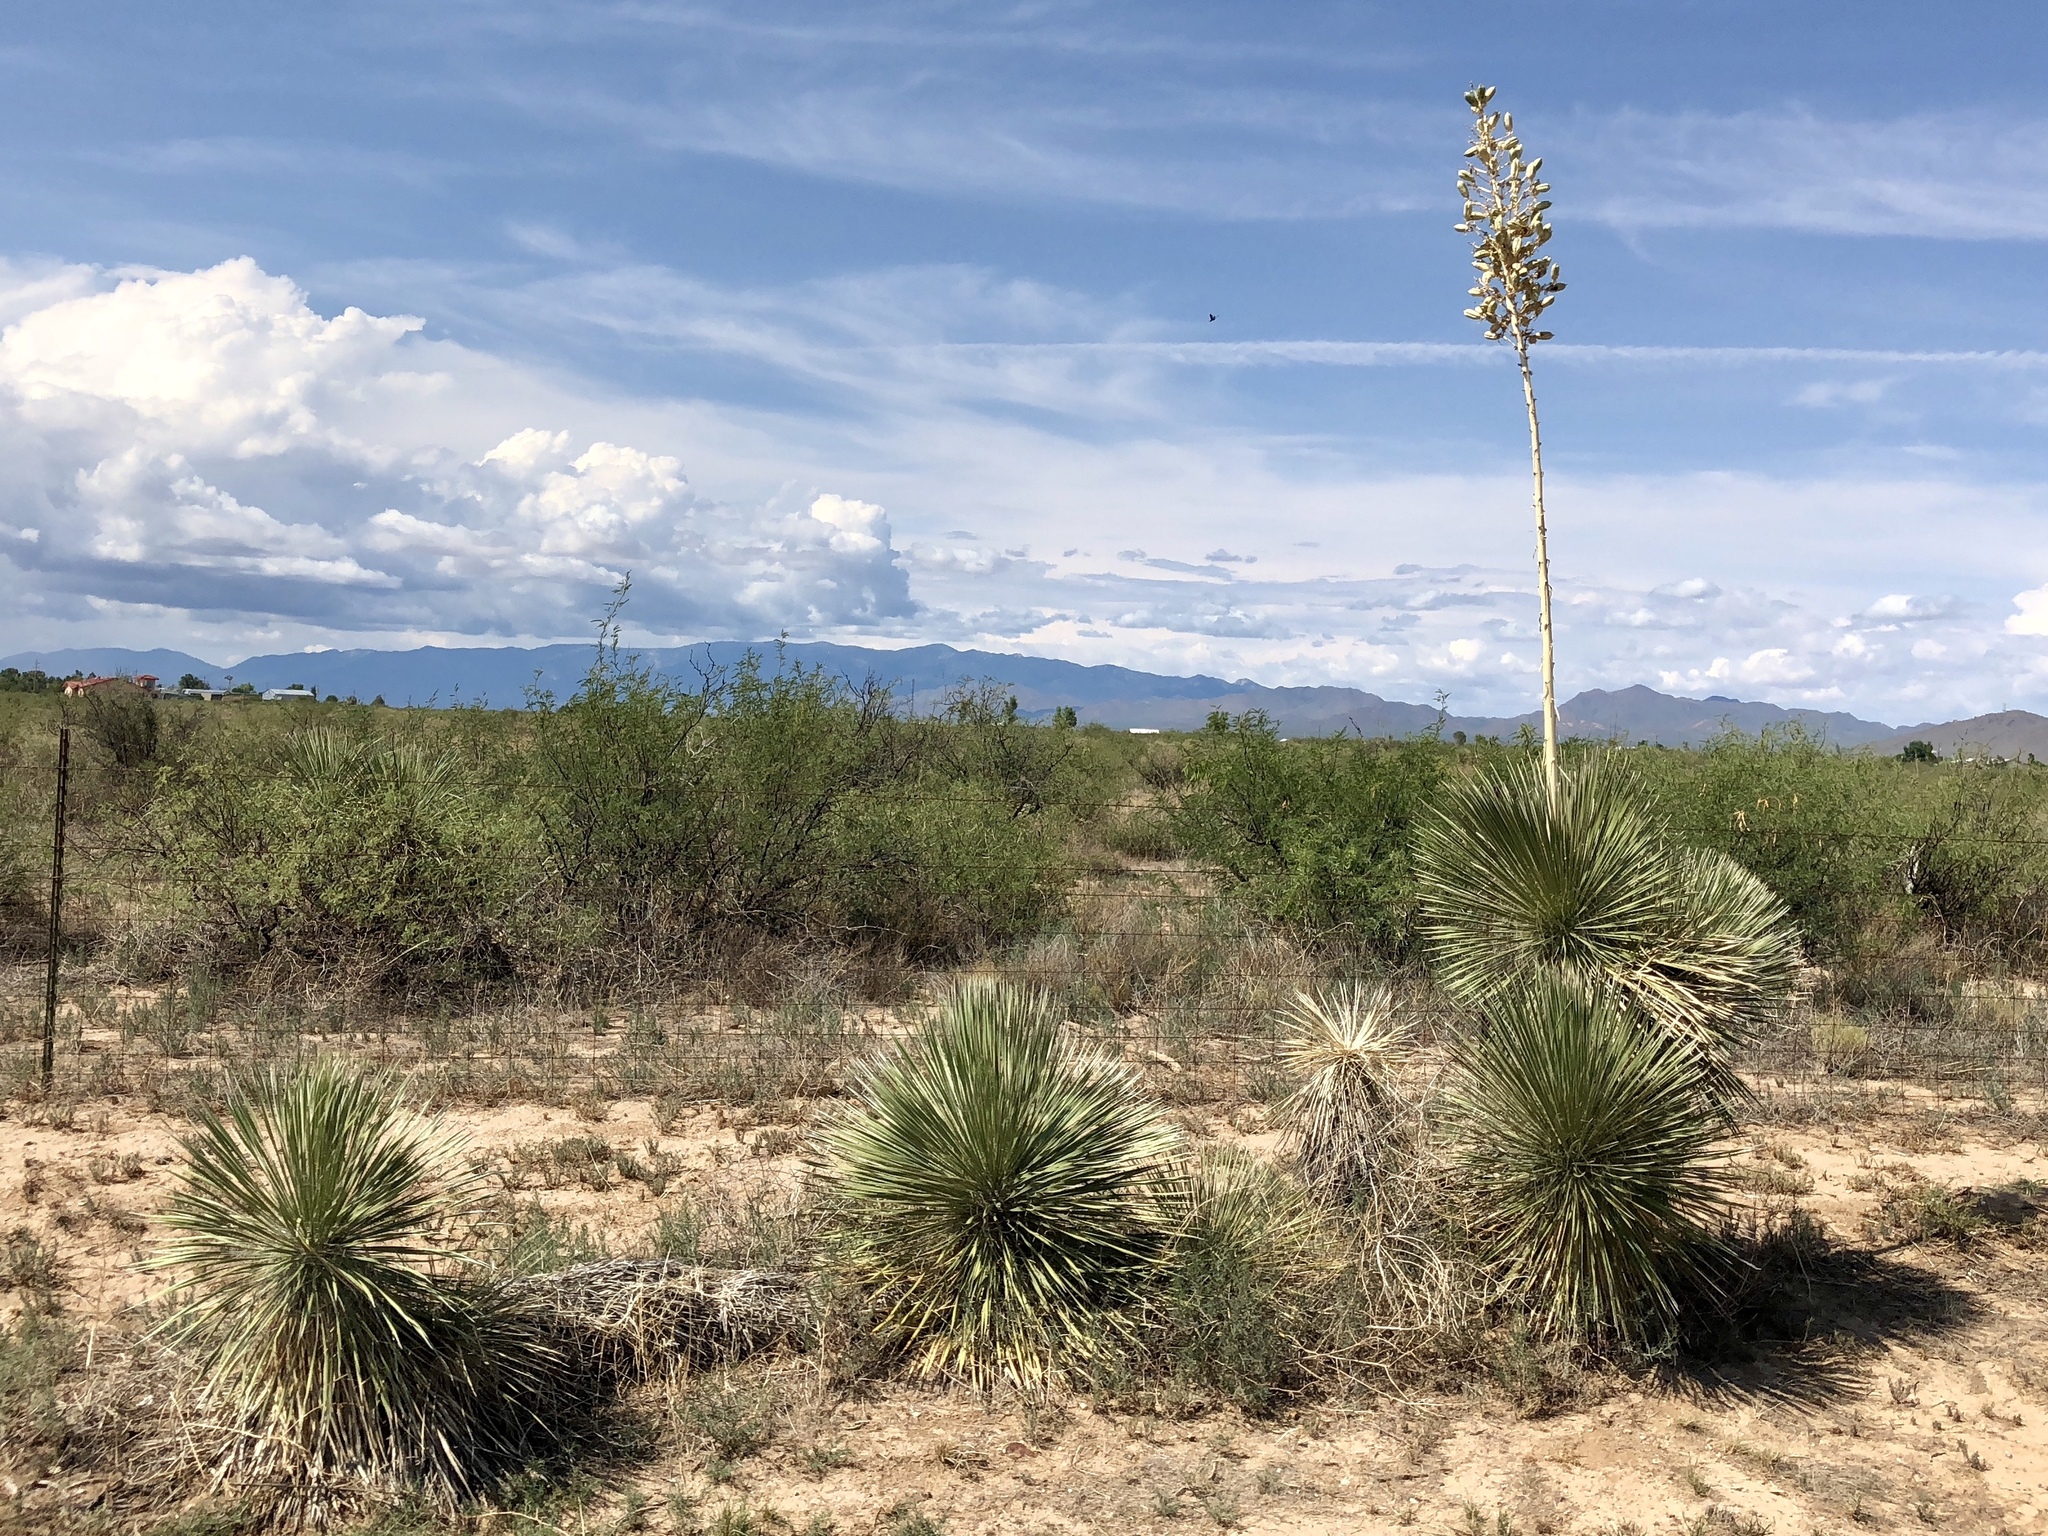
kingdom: Plantae
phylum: Tracheophyta
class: Liliopsida
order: Asparagales
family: Asparagaceae
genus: Yucca
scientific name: Yucca elata
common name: Palmella
